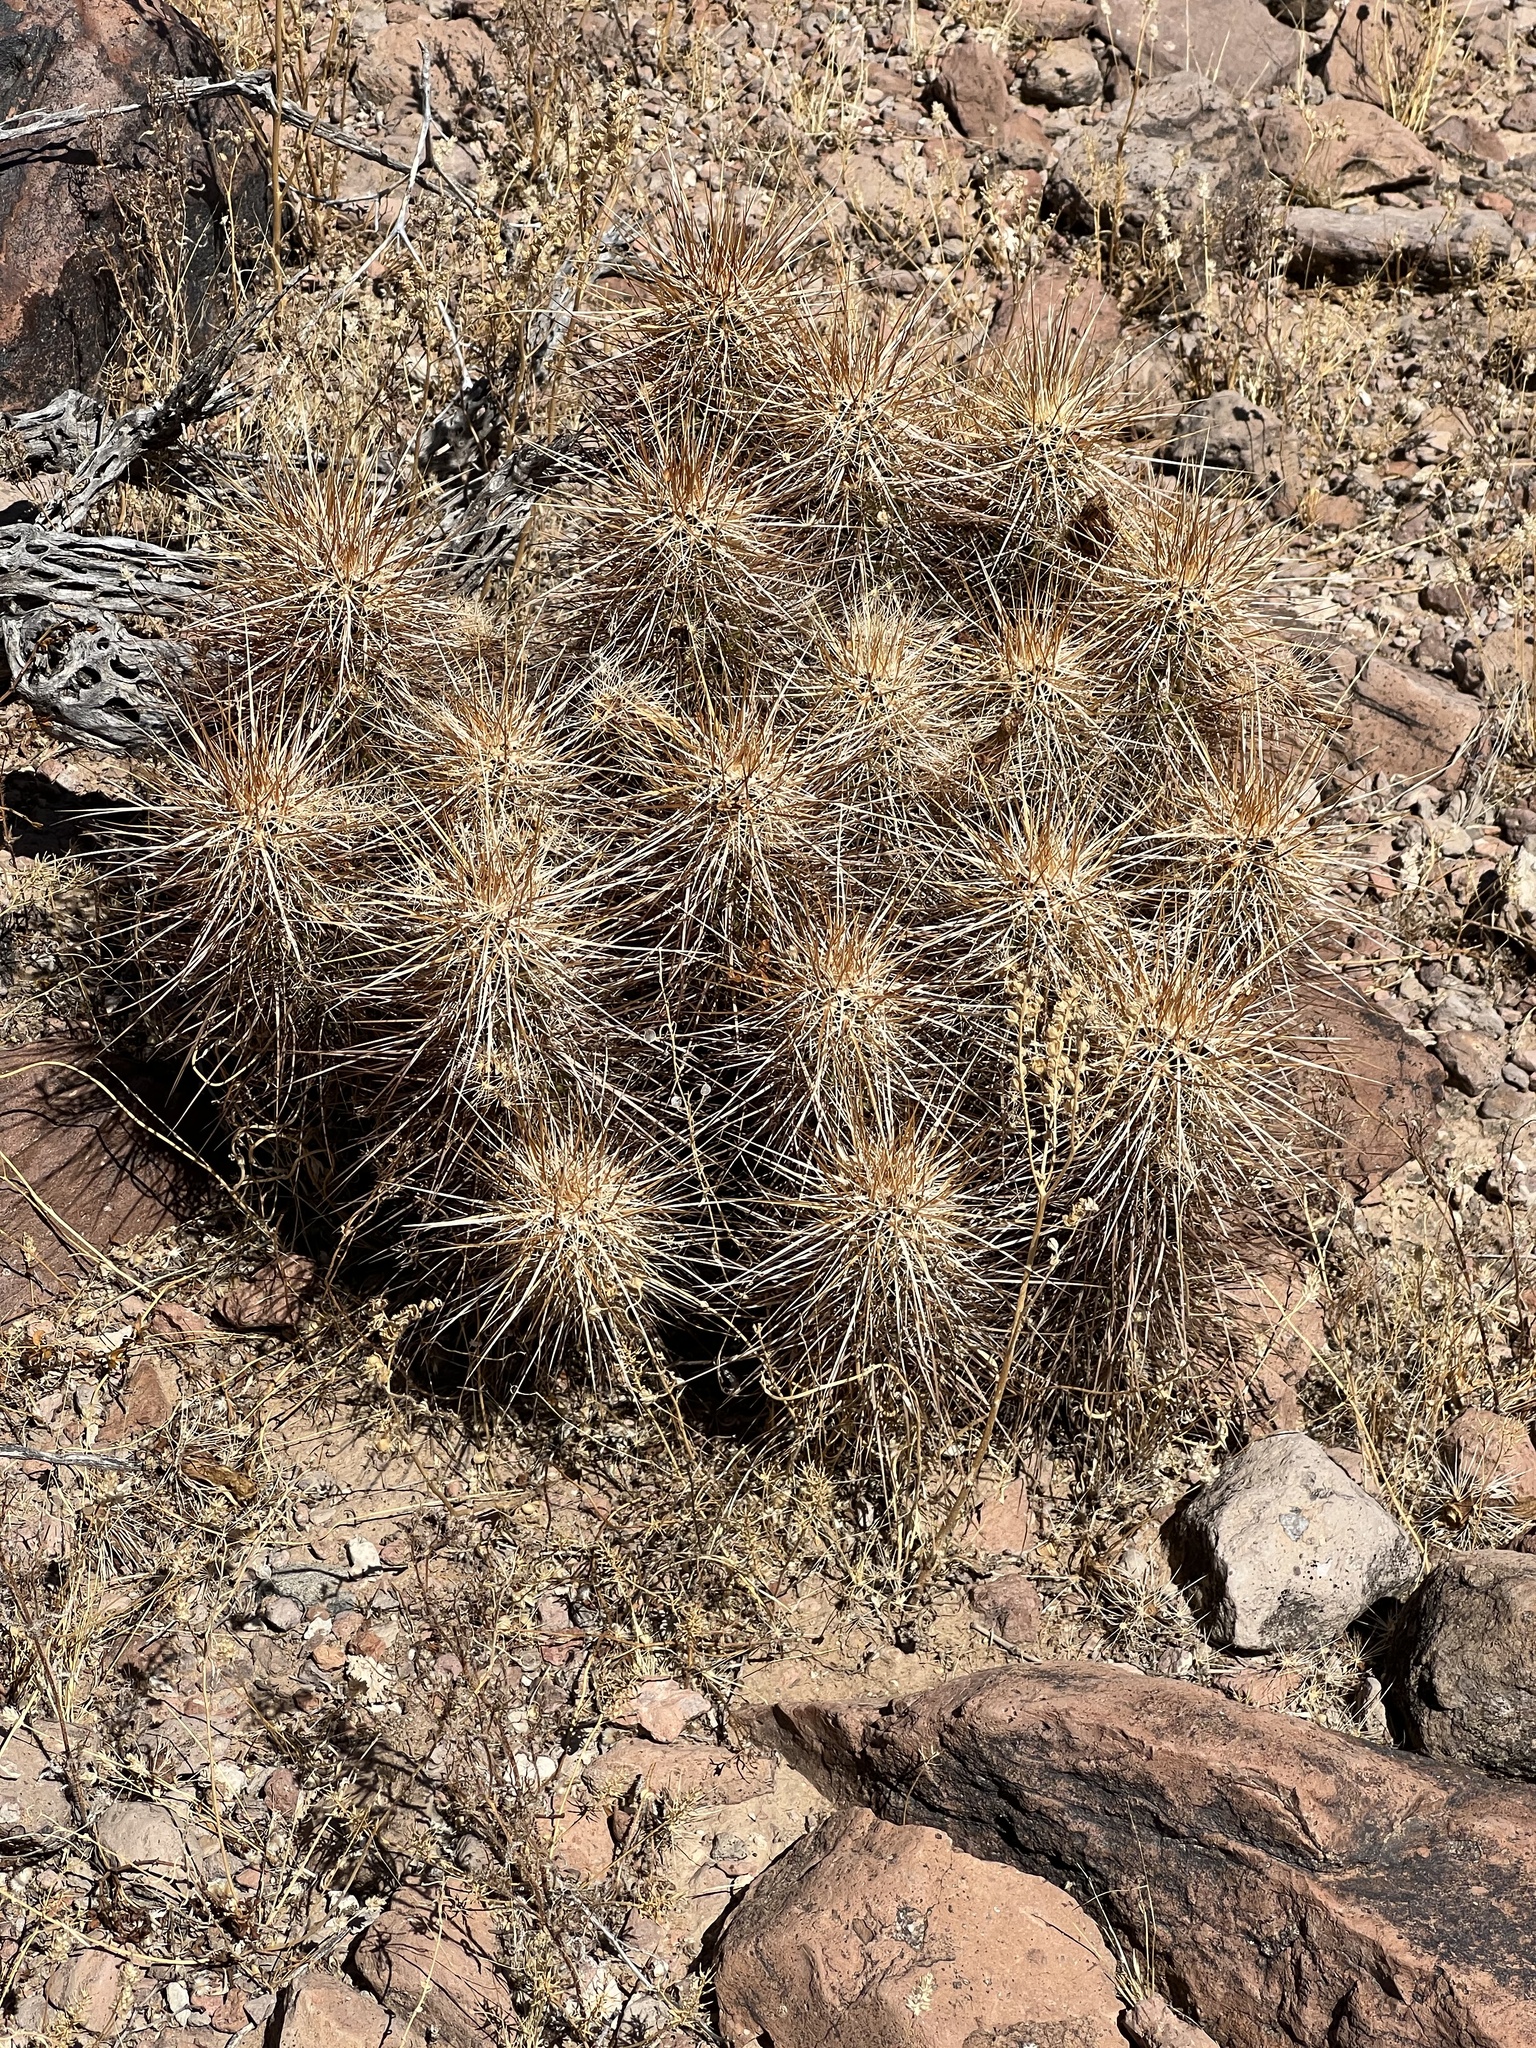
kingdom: Plantae
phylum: Tracheophyta
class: Magnoliopsida
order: Caryophyllales
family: Cactaceae
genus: Echinocereus
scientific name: Echinocereus engelmannii
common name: Engelmann's hedgehog cactus
